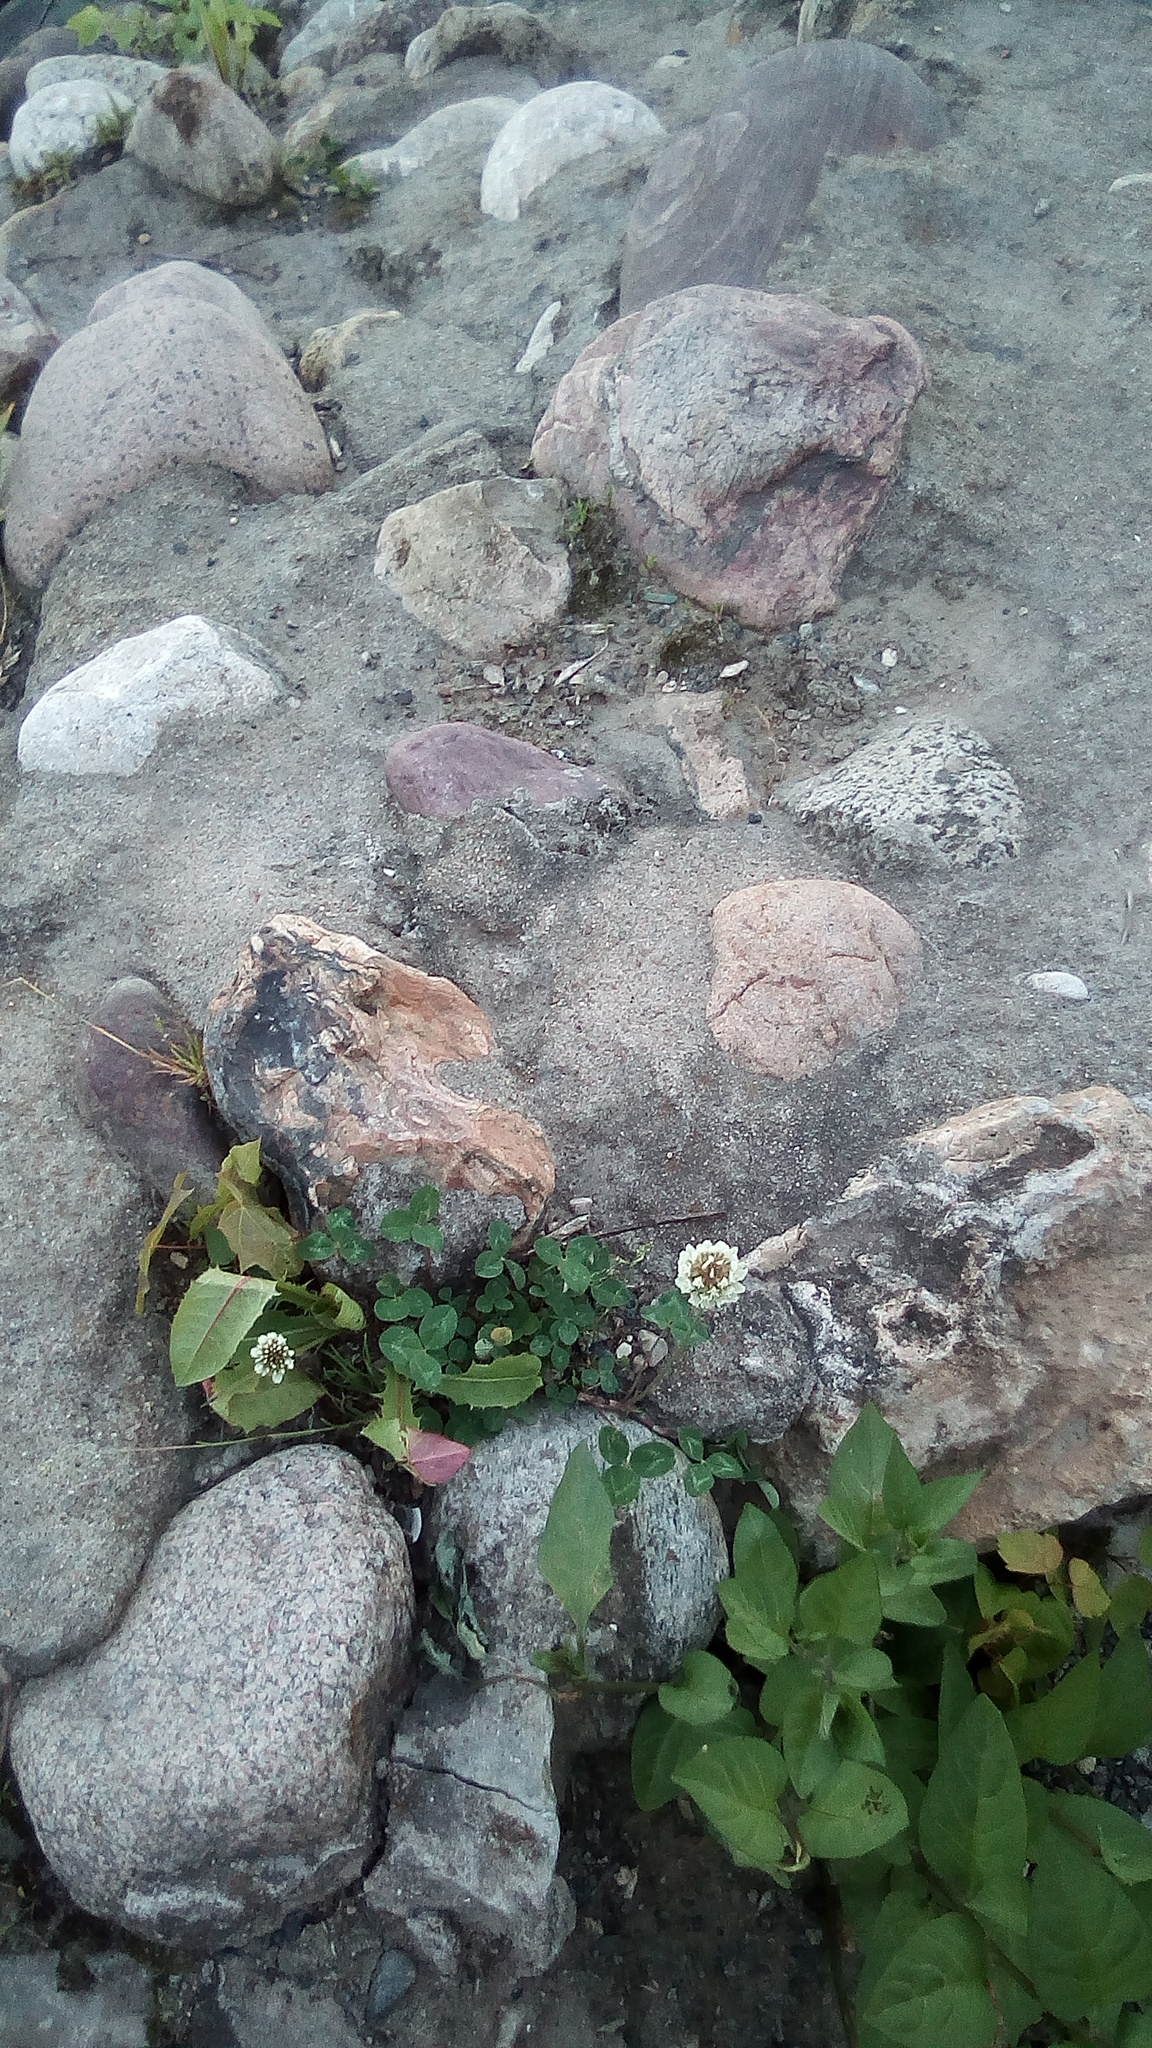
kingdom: Plantae
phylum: Tracheophyta
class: Magnoliopsida
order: Fabales
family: Fabaceae
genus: Trifolium
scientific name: Trifolium repens
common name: White clover
